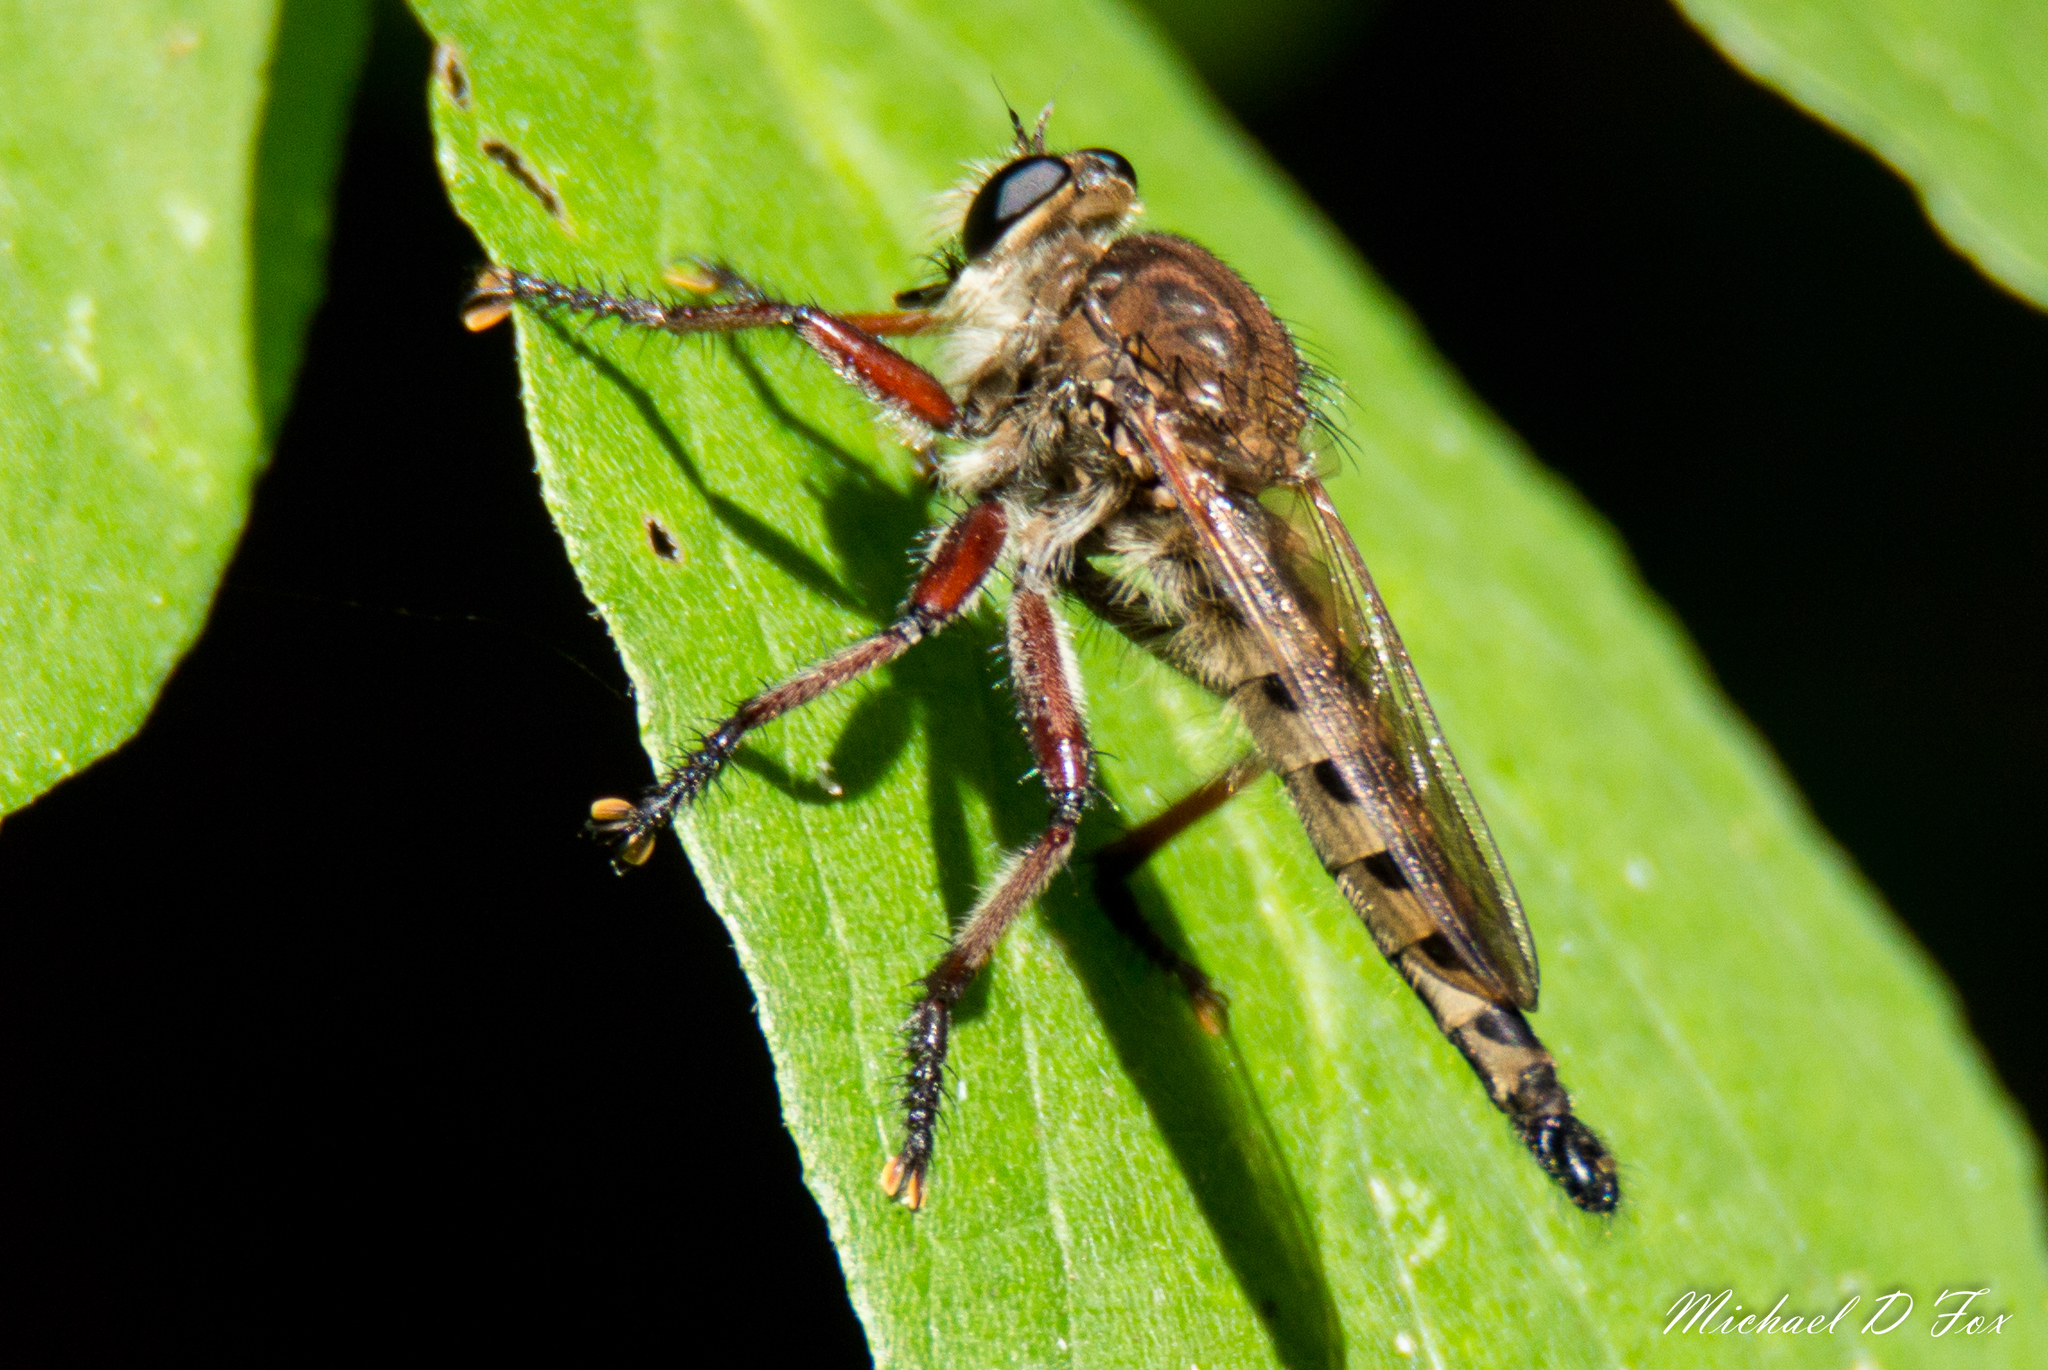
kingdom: Animalia
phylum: Arthropoda
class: Insecta
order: Diptera
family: Asilidae
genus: Promachus
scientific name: Promachus hinei
